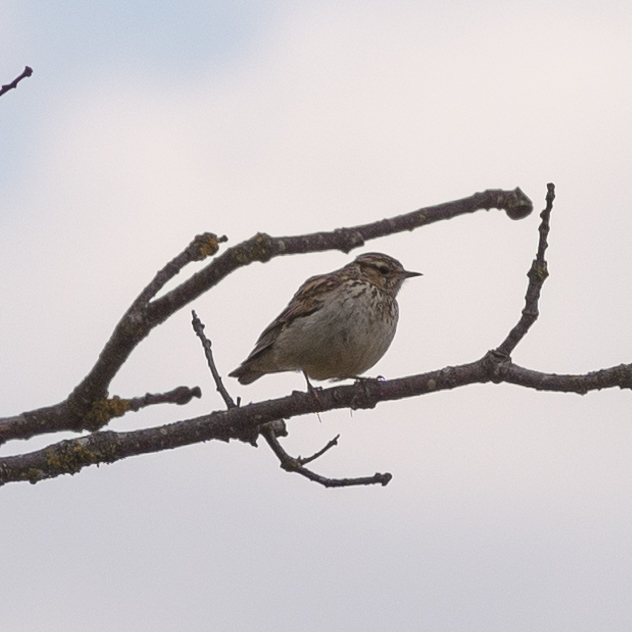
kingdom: Animalia
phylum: Chordata
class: Aves
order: Passeriformes
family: Alaudidae
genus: Lullula
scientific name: Lullula arborea
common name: Woodlark
